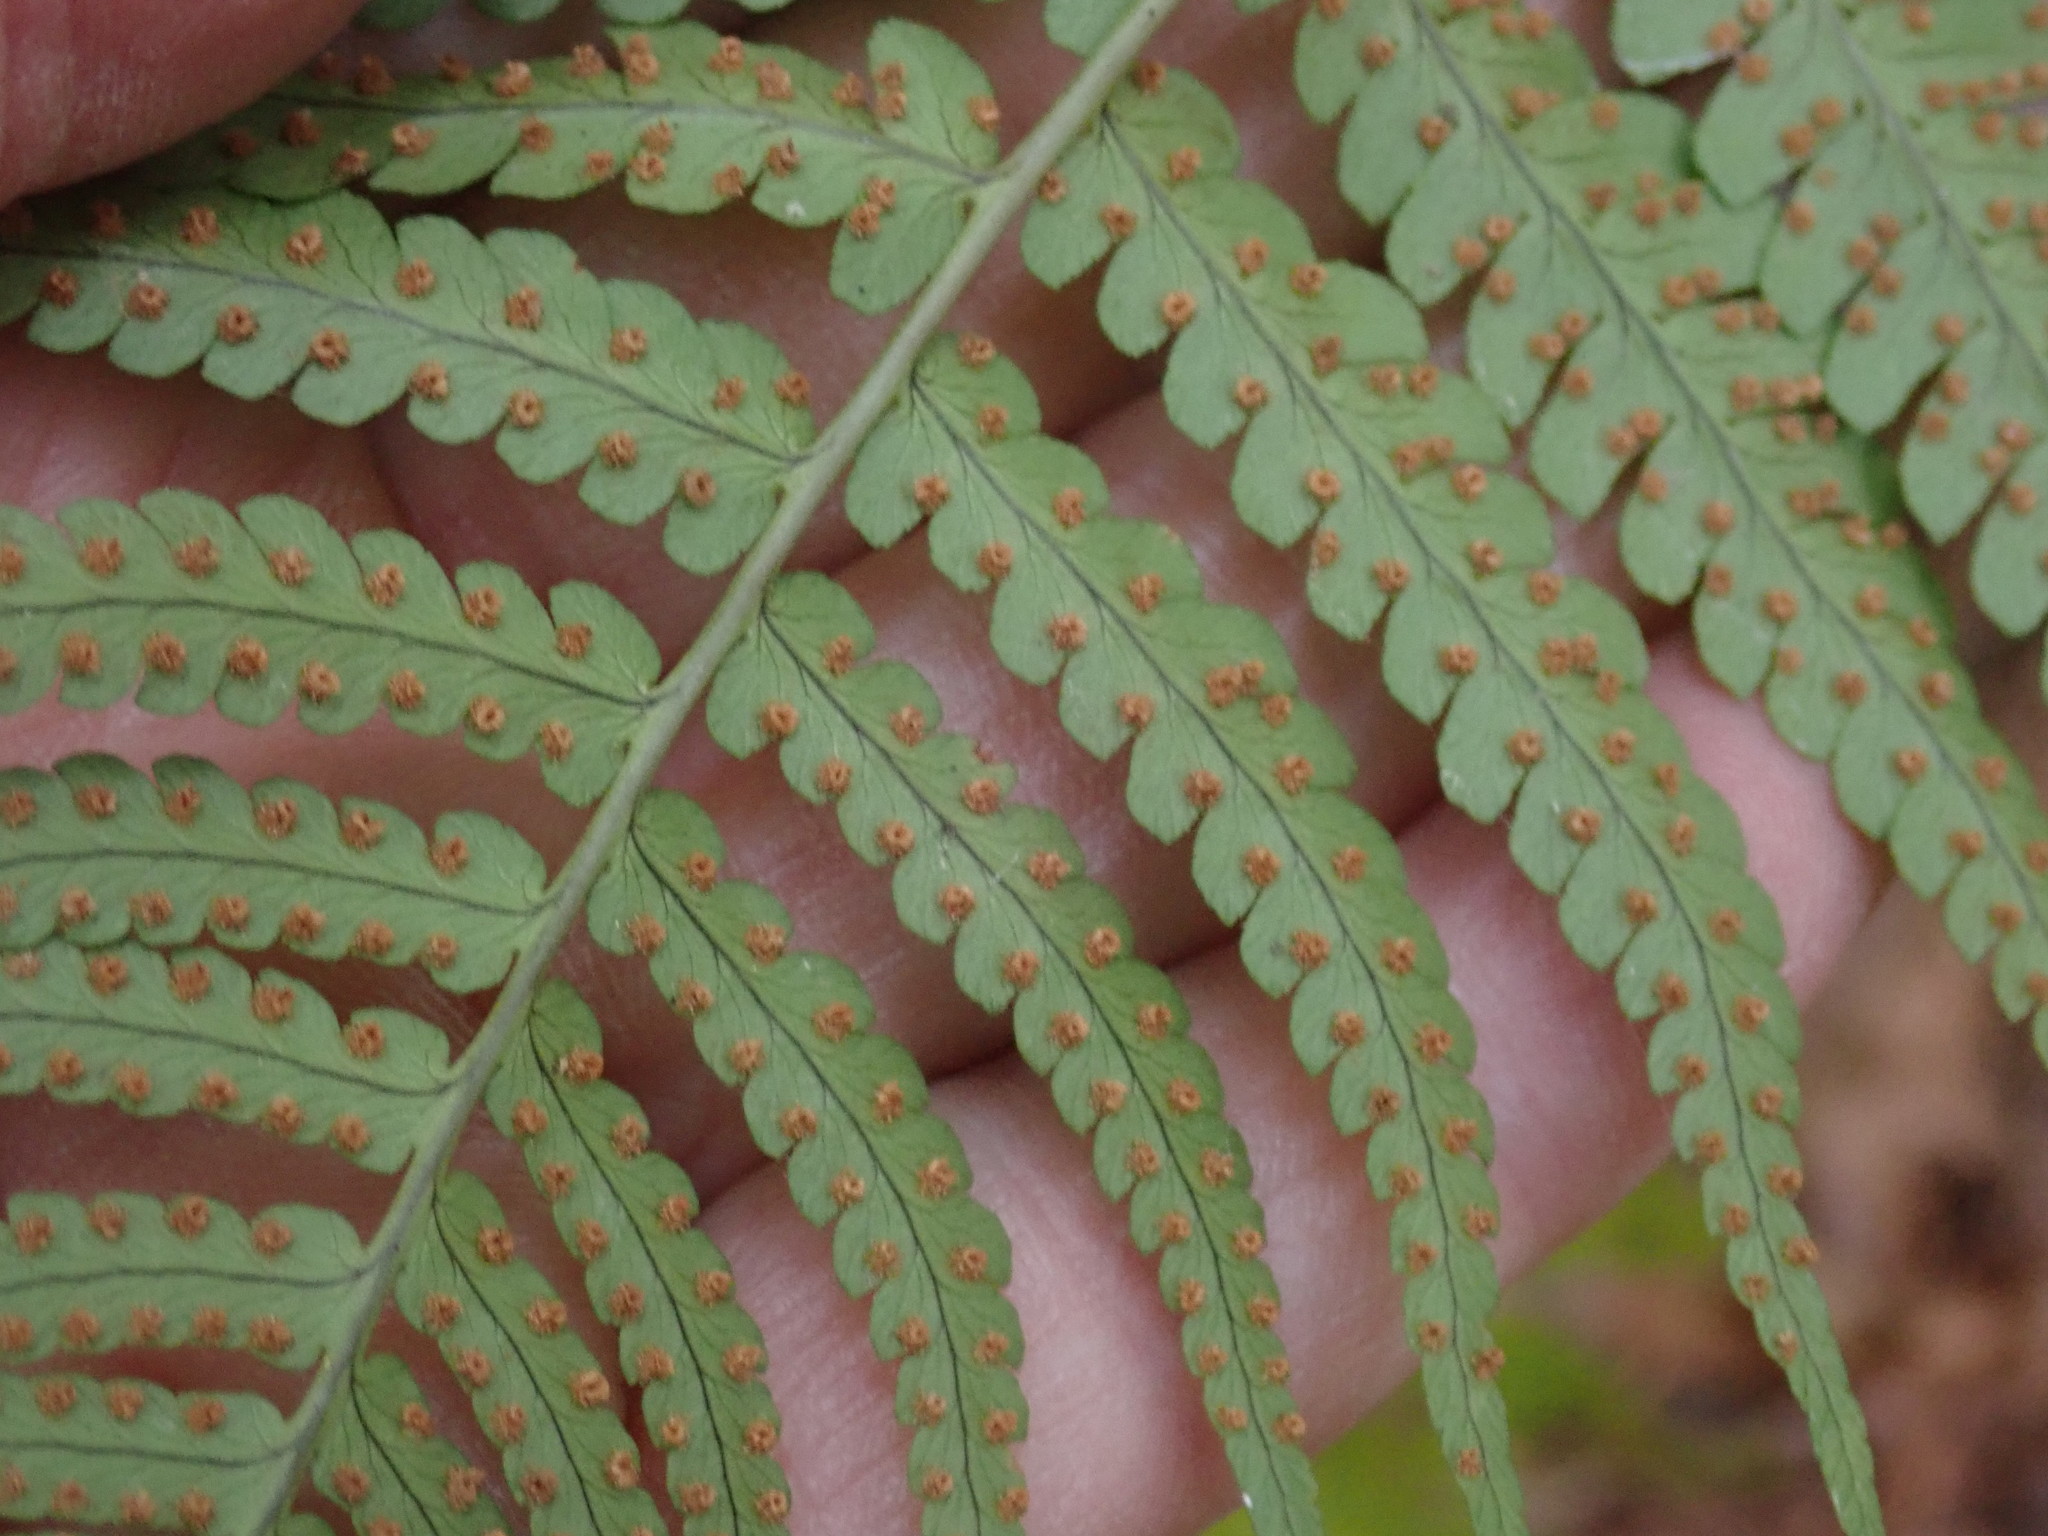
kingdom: Plantae
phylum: Tracheophyta
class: Polypodiopsida
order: Polypodiales
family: Dryopteridaceae
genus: Dryopteris
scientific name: Dryopteris marginalis
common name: Marginal wood fern
